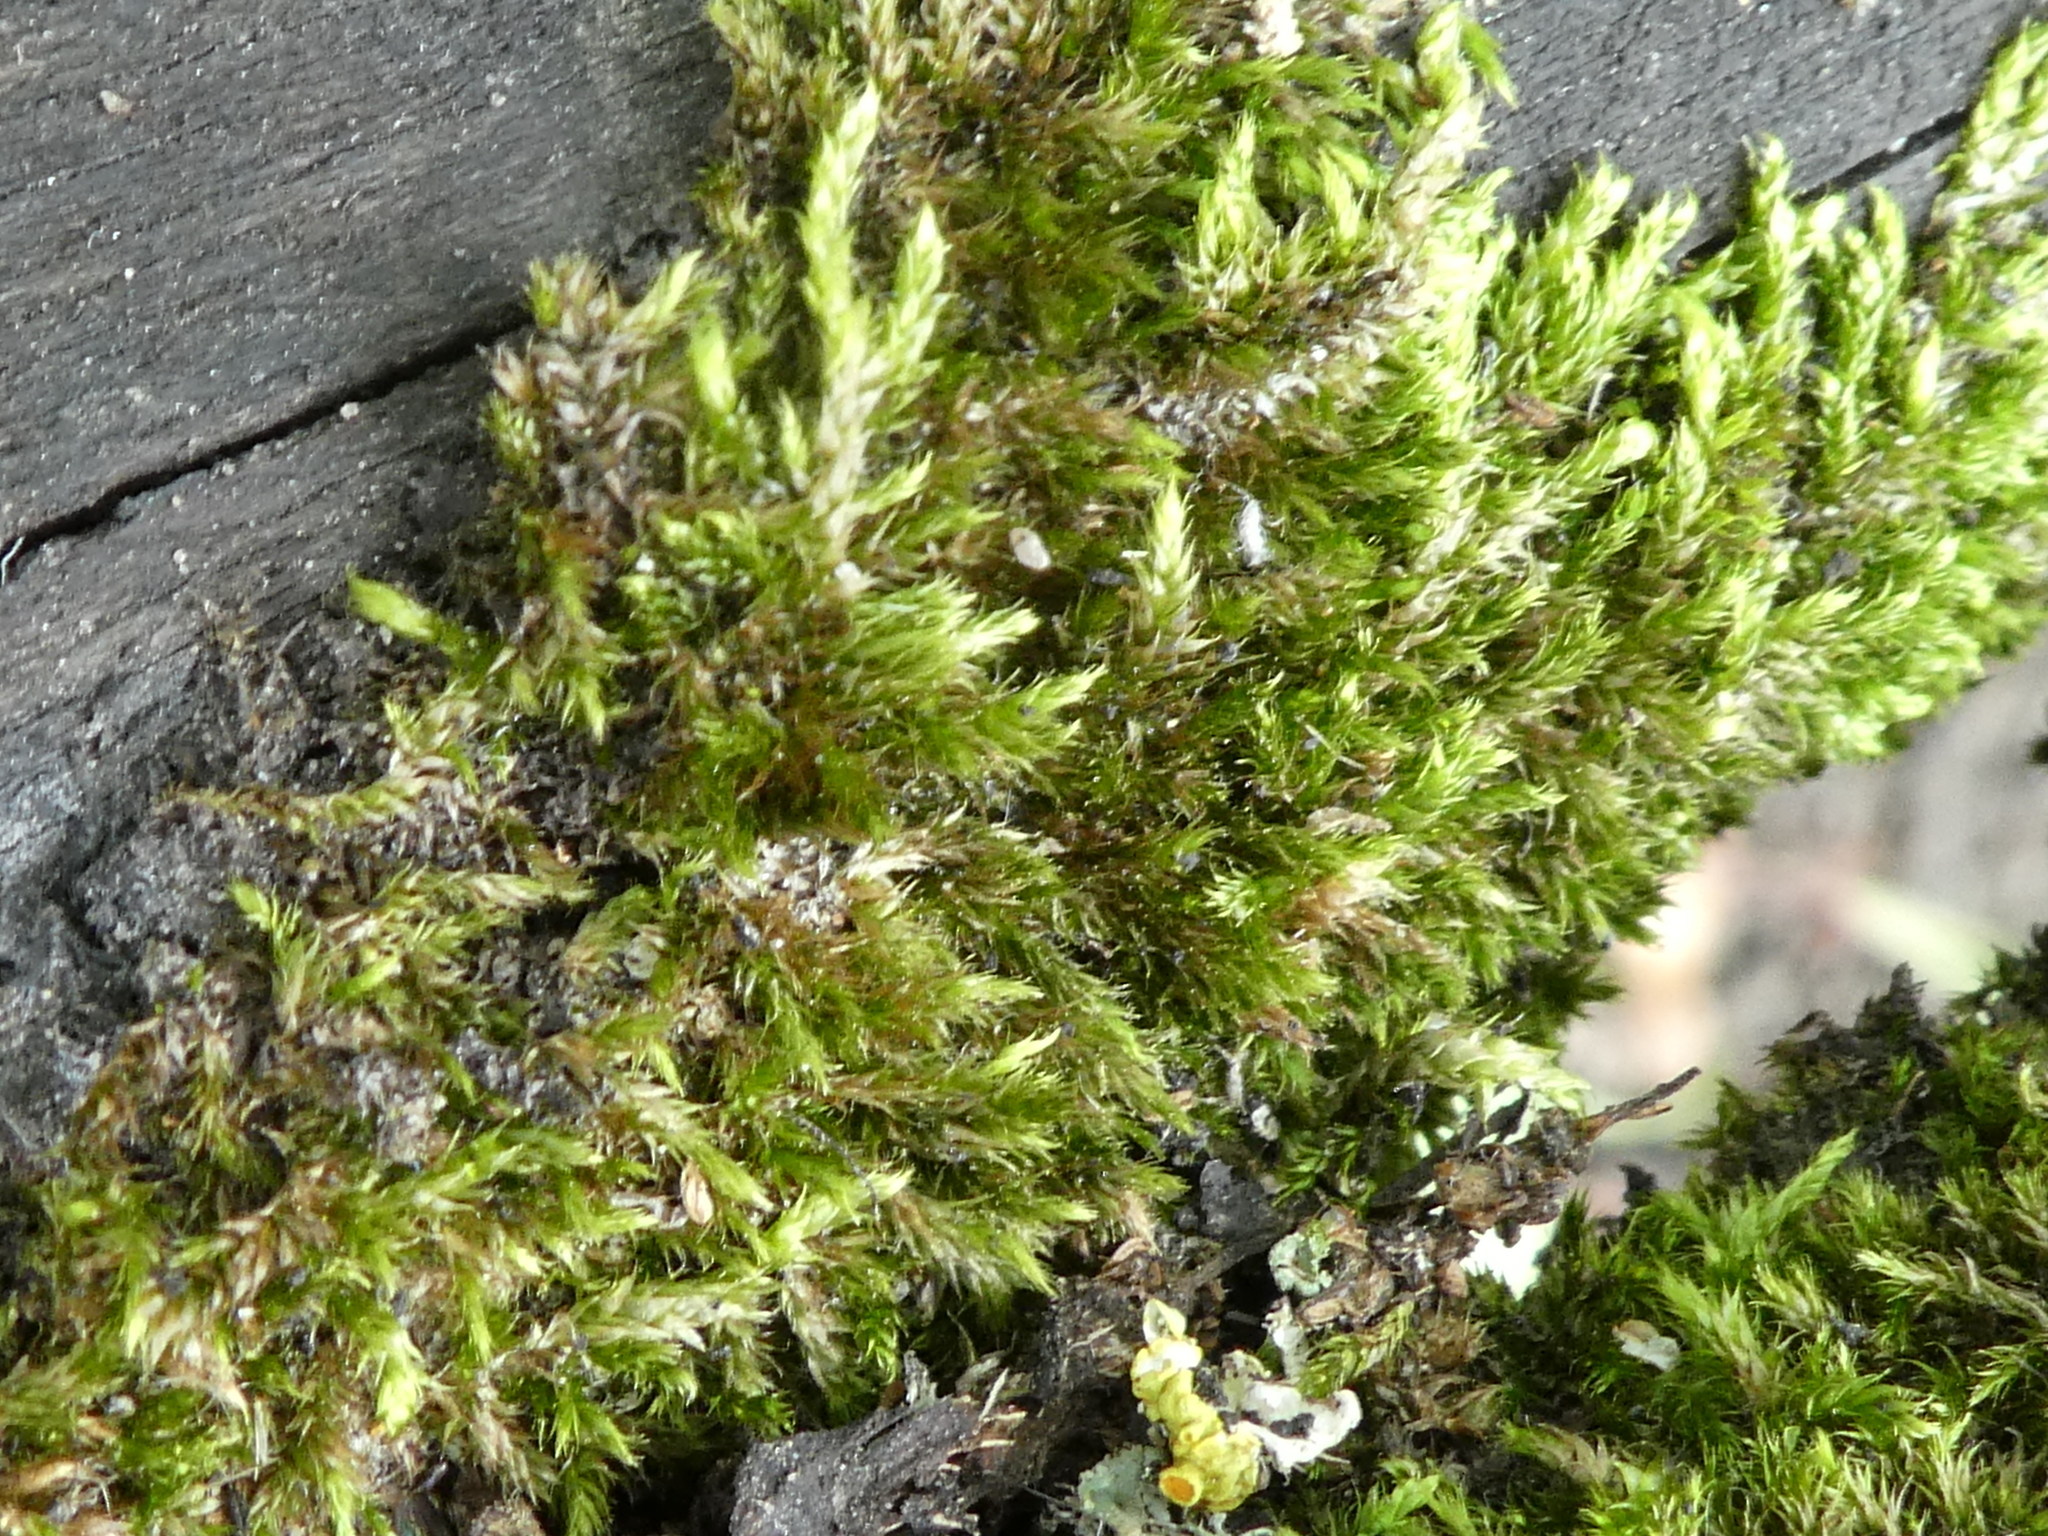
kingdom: Plantae
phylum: Bryophyta
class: Bryopsida
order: Hypnales
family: Brachytheciaceae
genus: Brachythecium
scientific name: Brachythecium rutabulum
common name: Rough-stalked feather-moss
